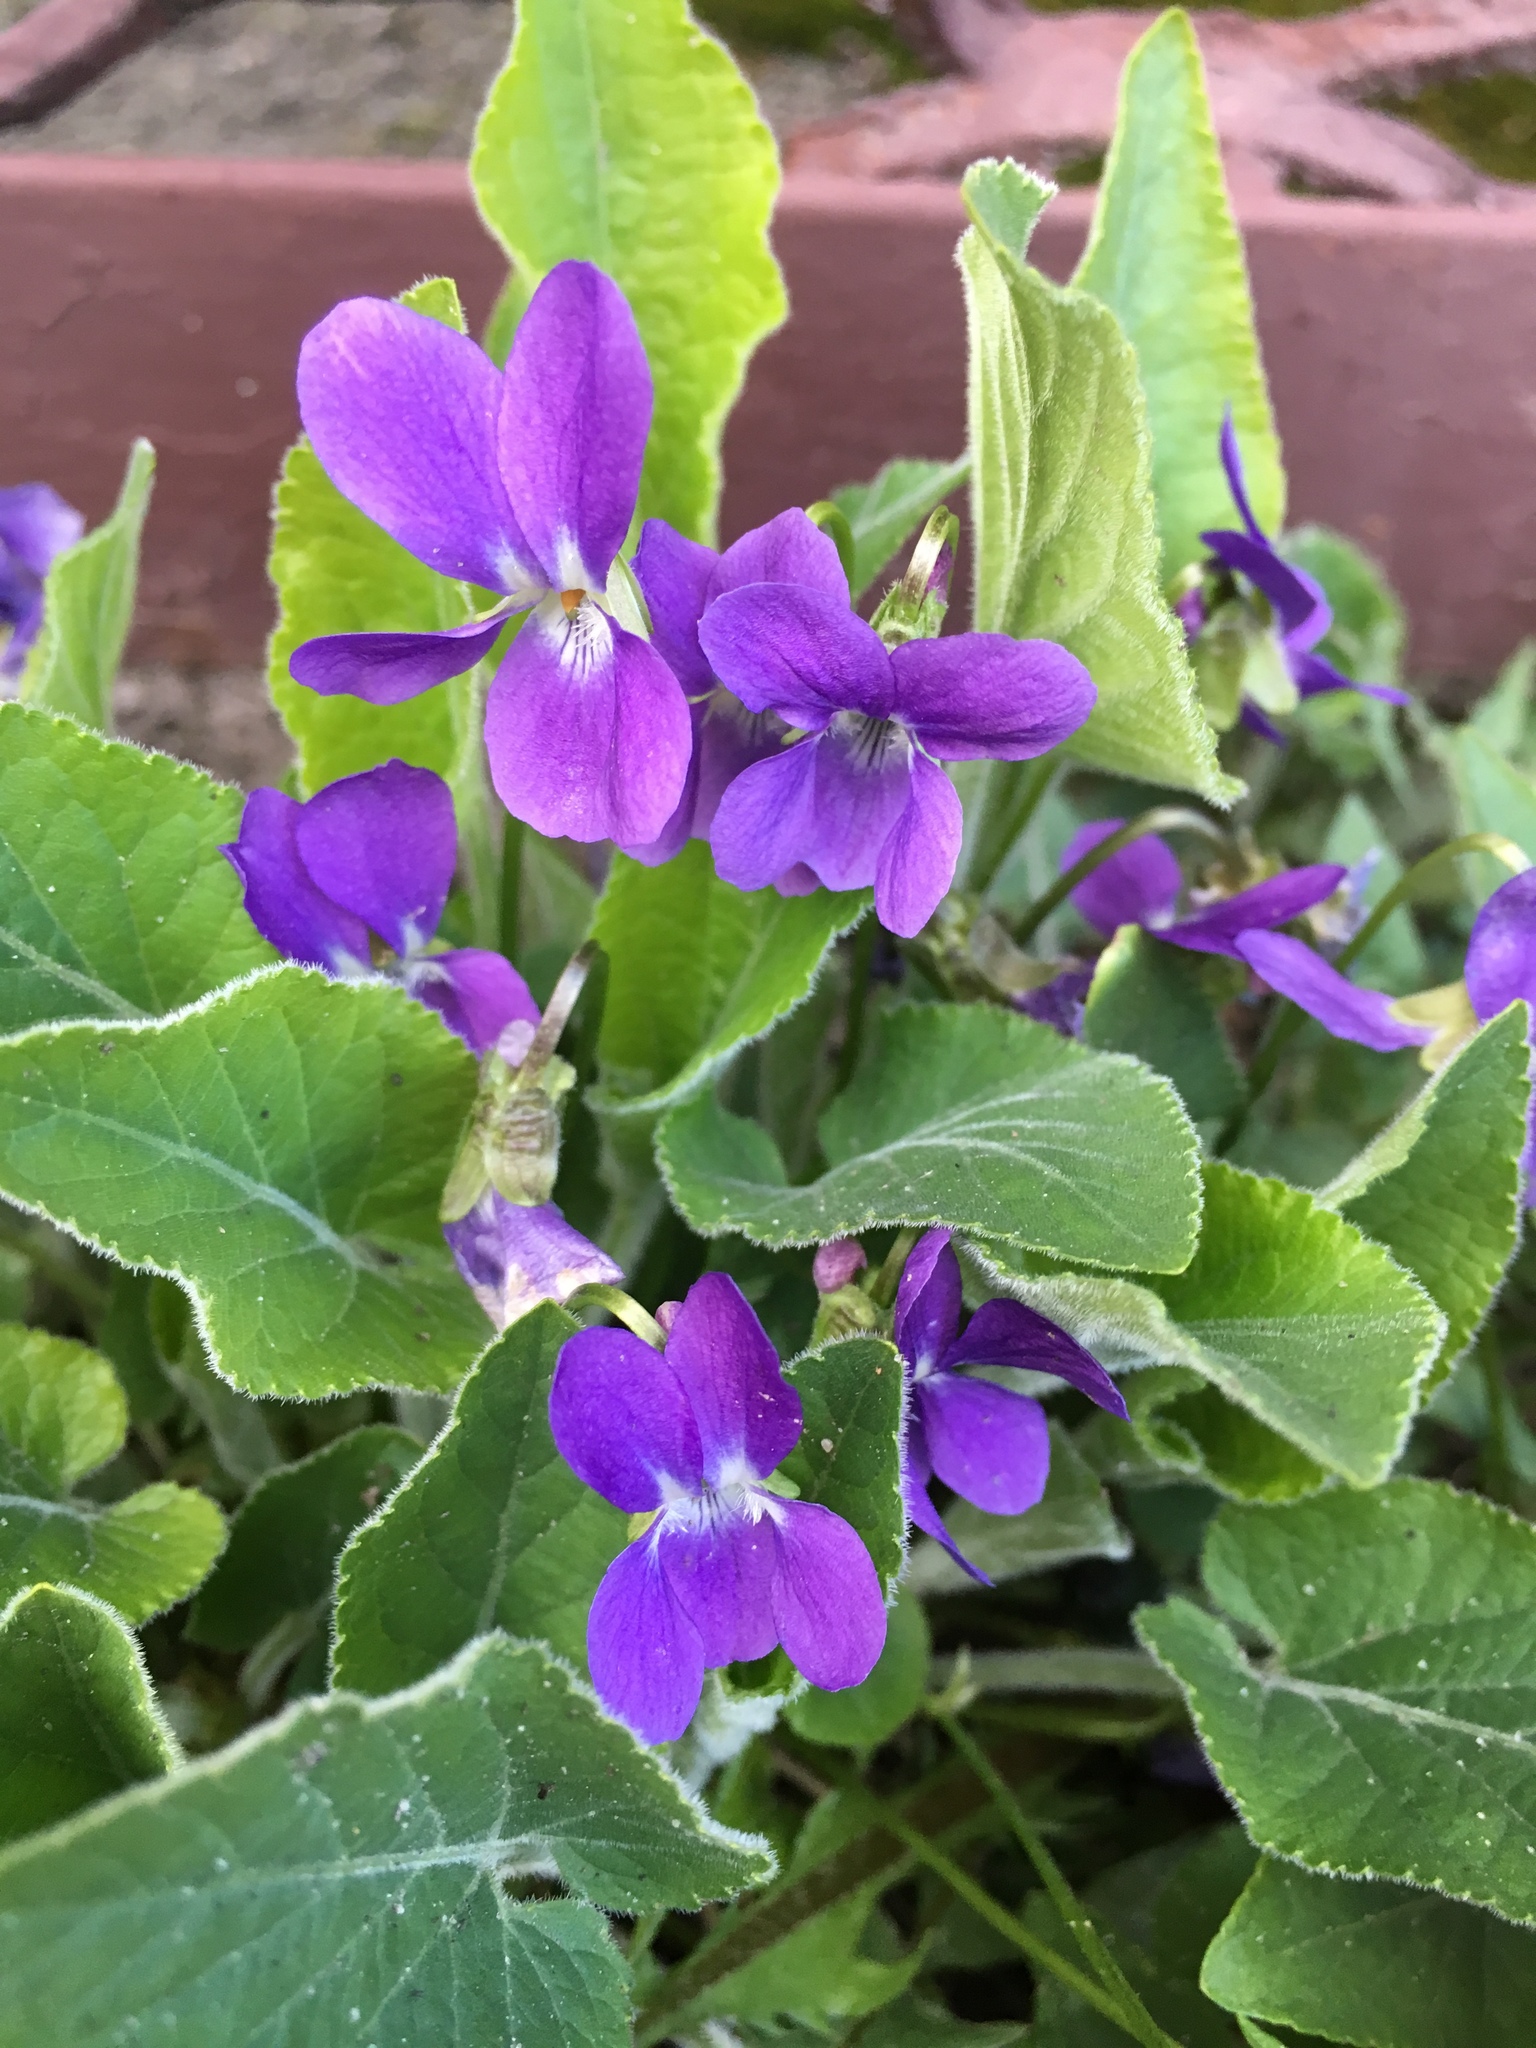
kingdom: Plantae
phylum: Tracheophyta
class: Magnoliopsida
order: Malpighiales
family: Violaceae
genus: Viola
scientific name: Viola odorata
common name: Sweet violet
